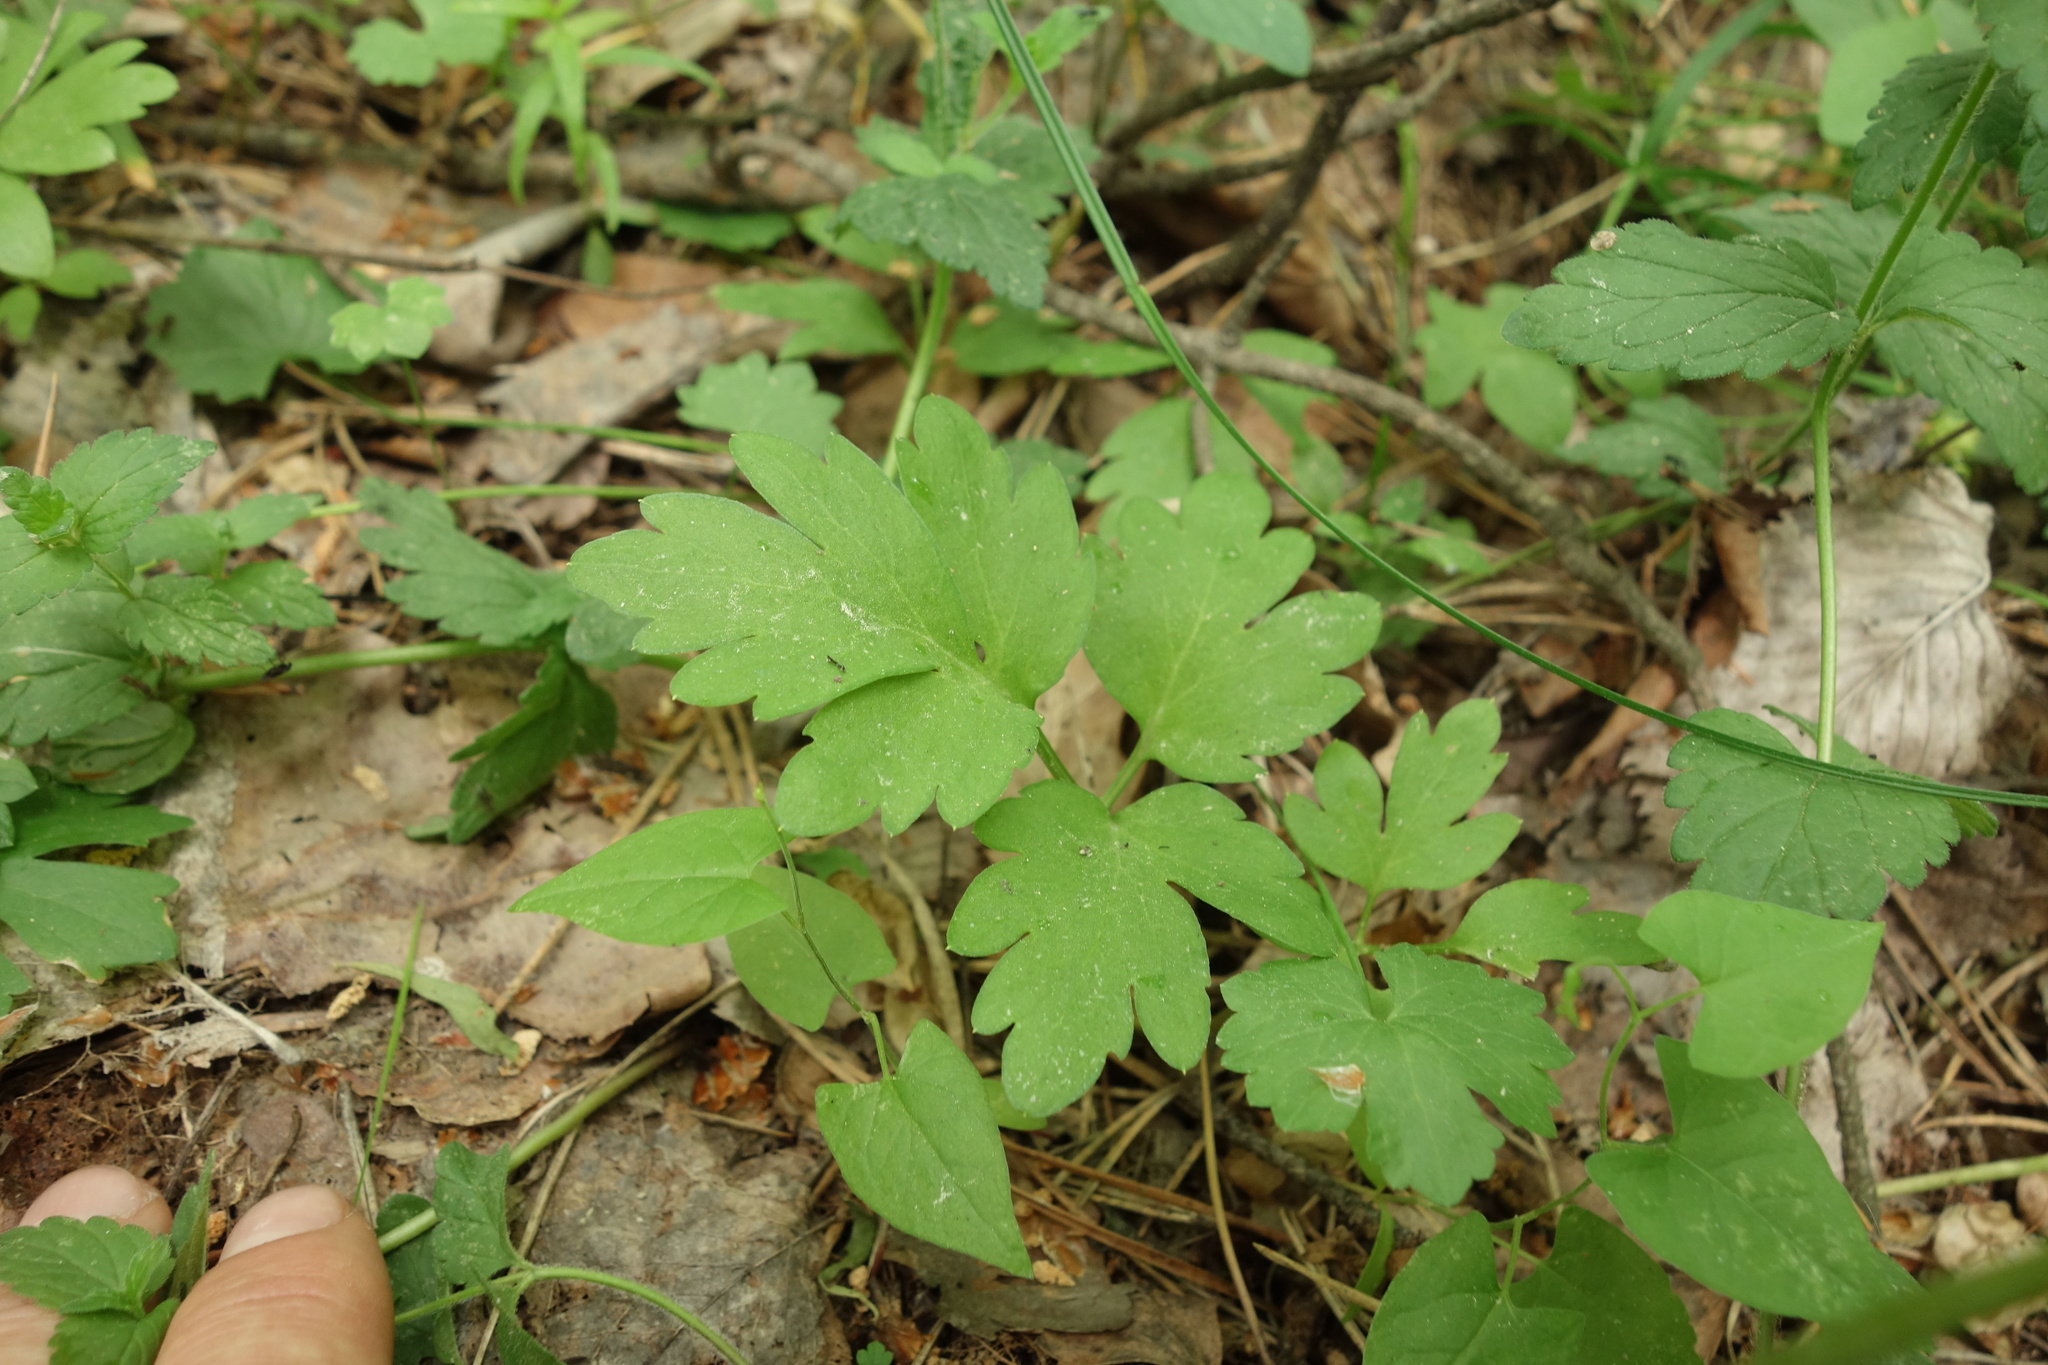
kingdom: Plantae
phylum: Tracheophyta
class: Magnoliopsida
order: Dipsacales
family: Viburnaceae
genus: Adoxa
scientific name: Adoxa moschatellina
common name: Moschatel
